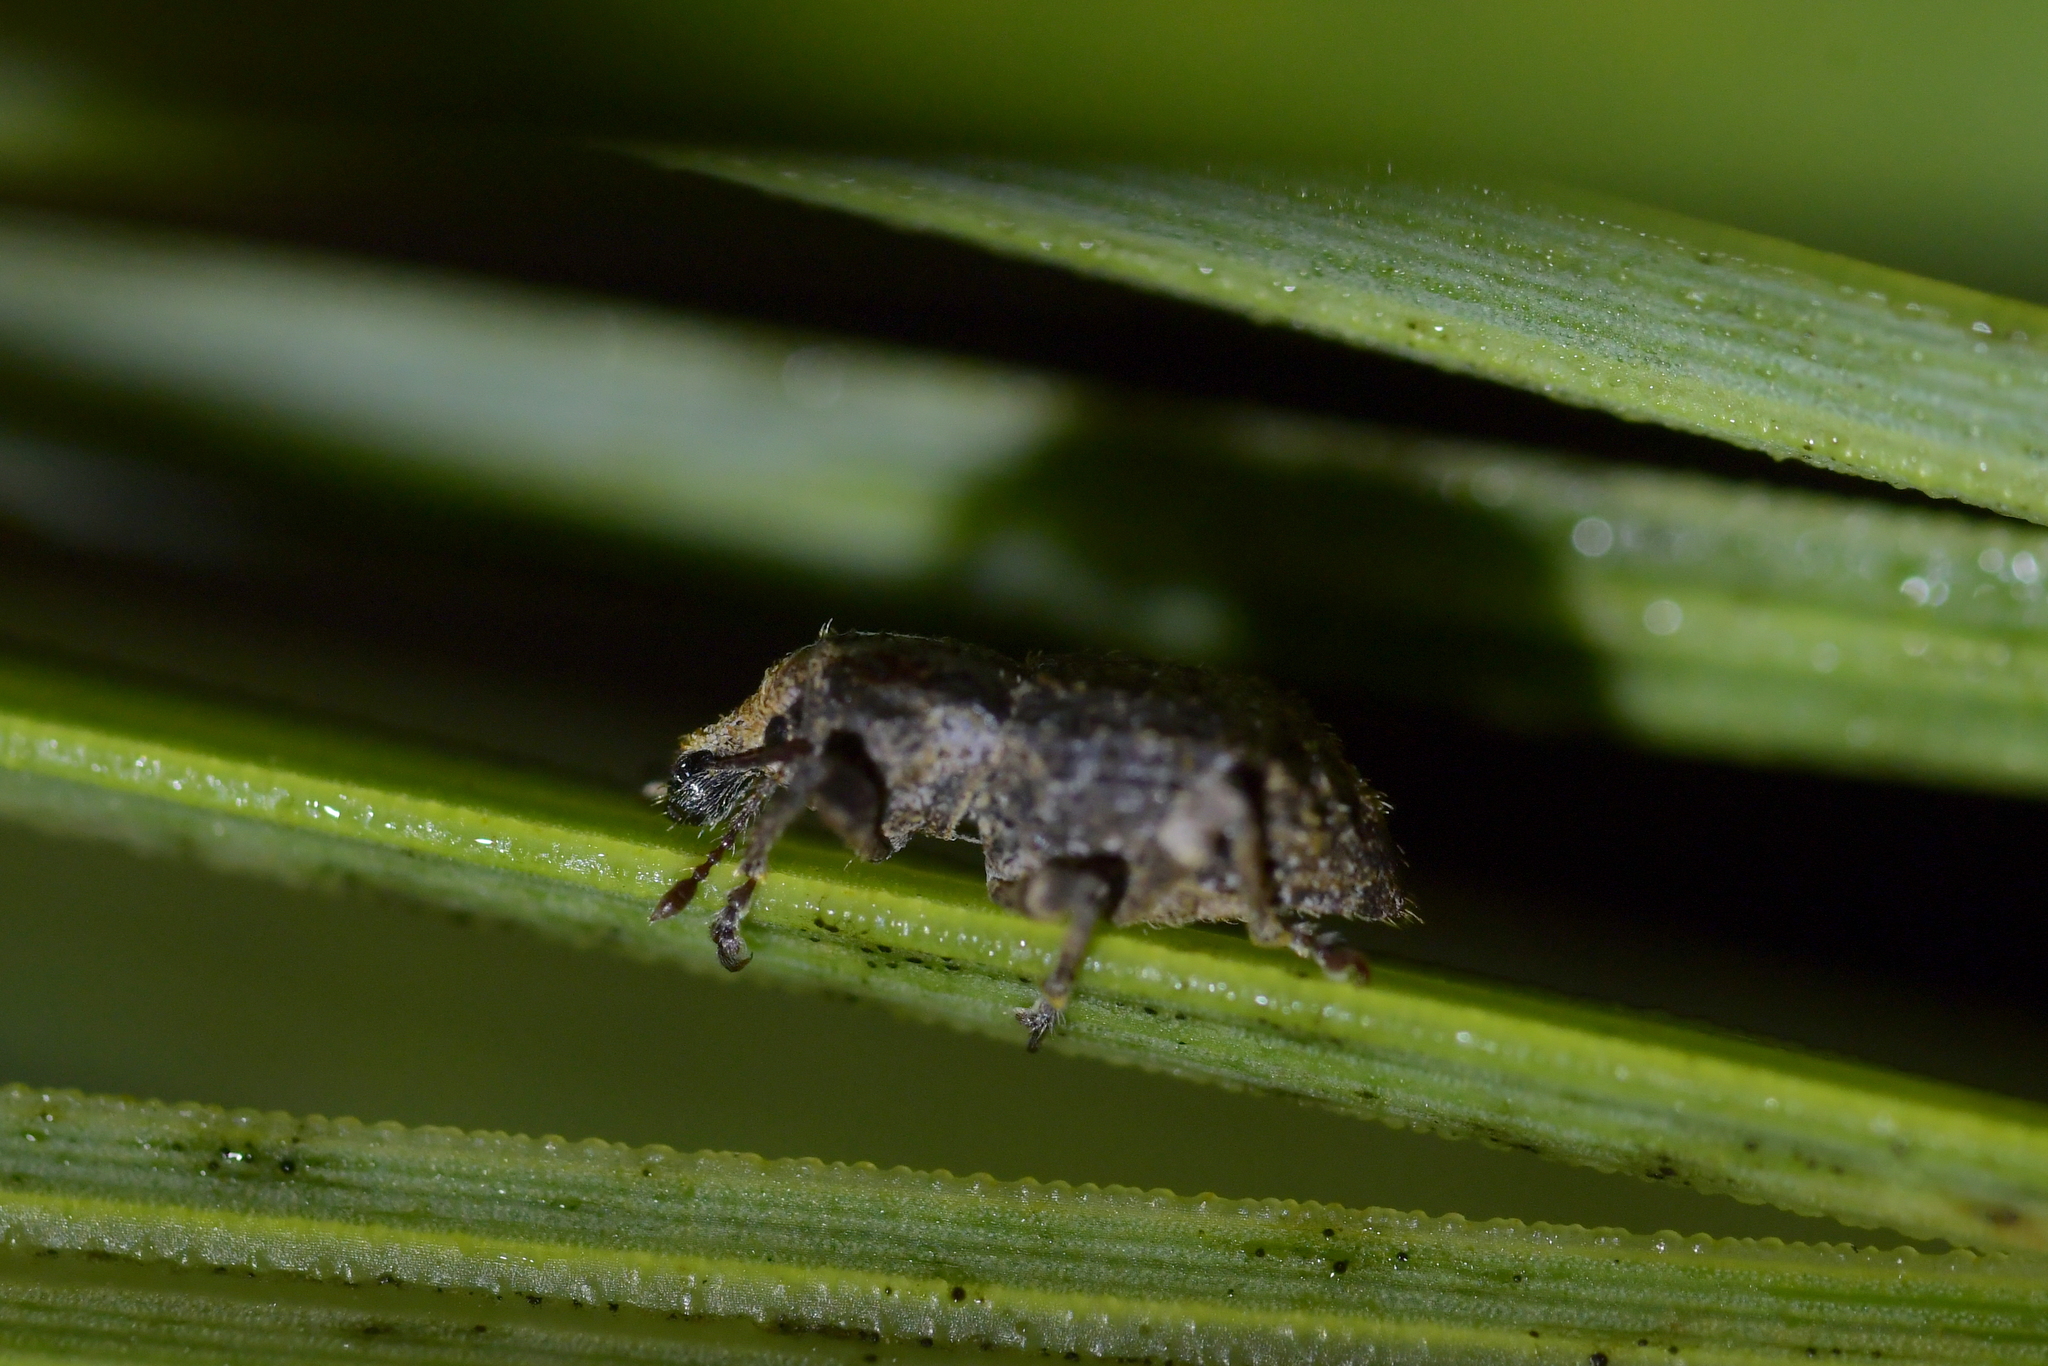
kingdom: Animalia
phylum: Arthropoda
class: Insecta
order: Coleoptera
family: Curculionidae
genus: Catoptes
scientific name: Catoptes constrictus
